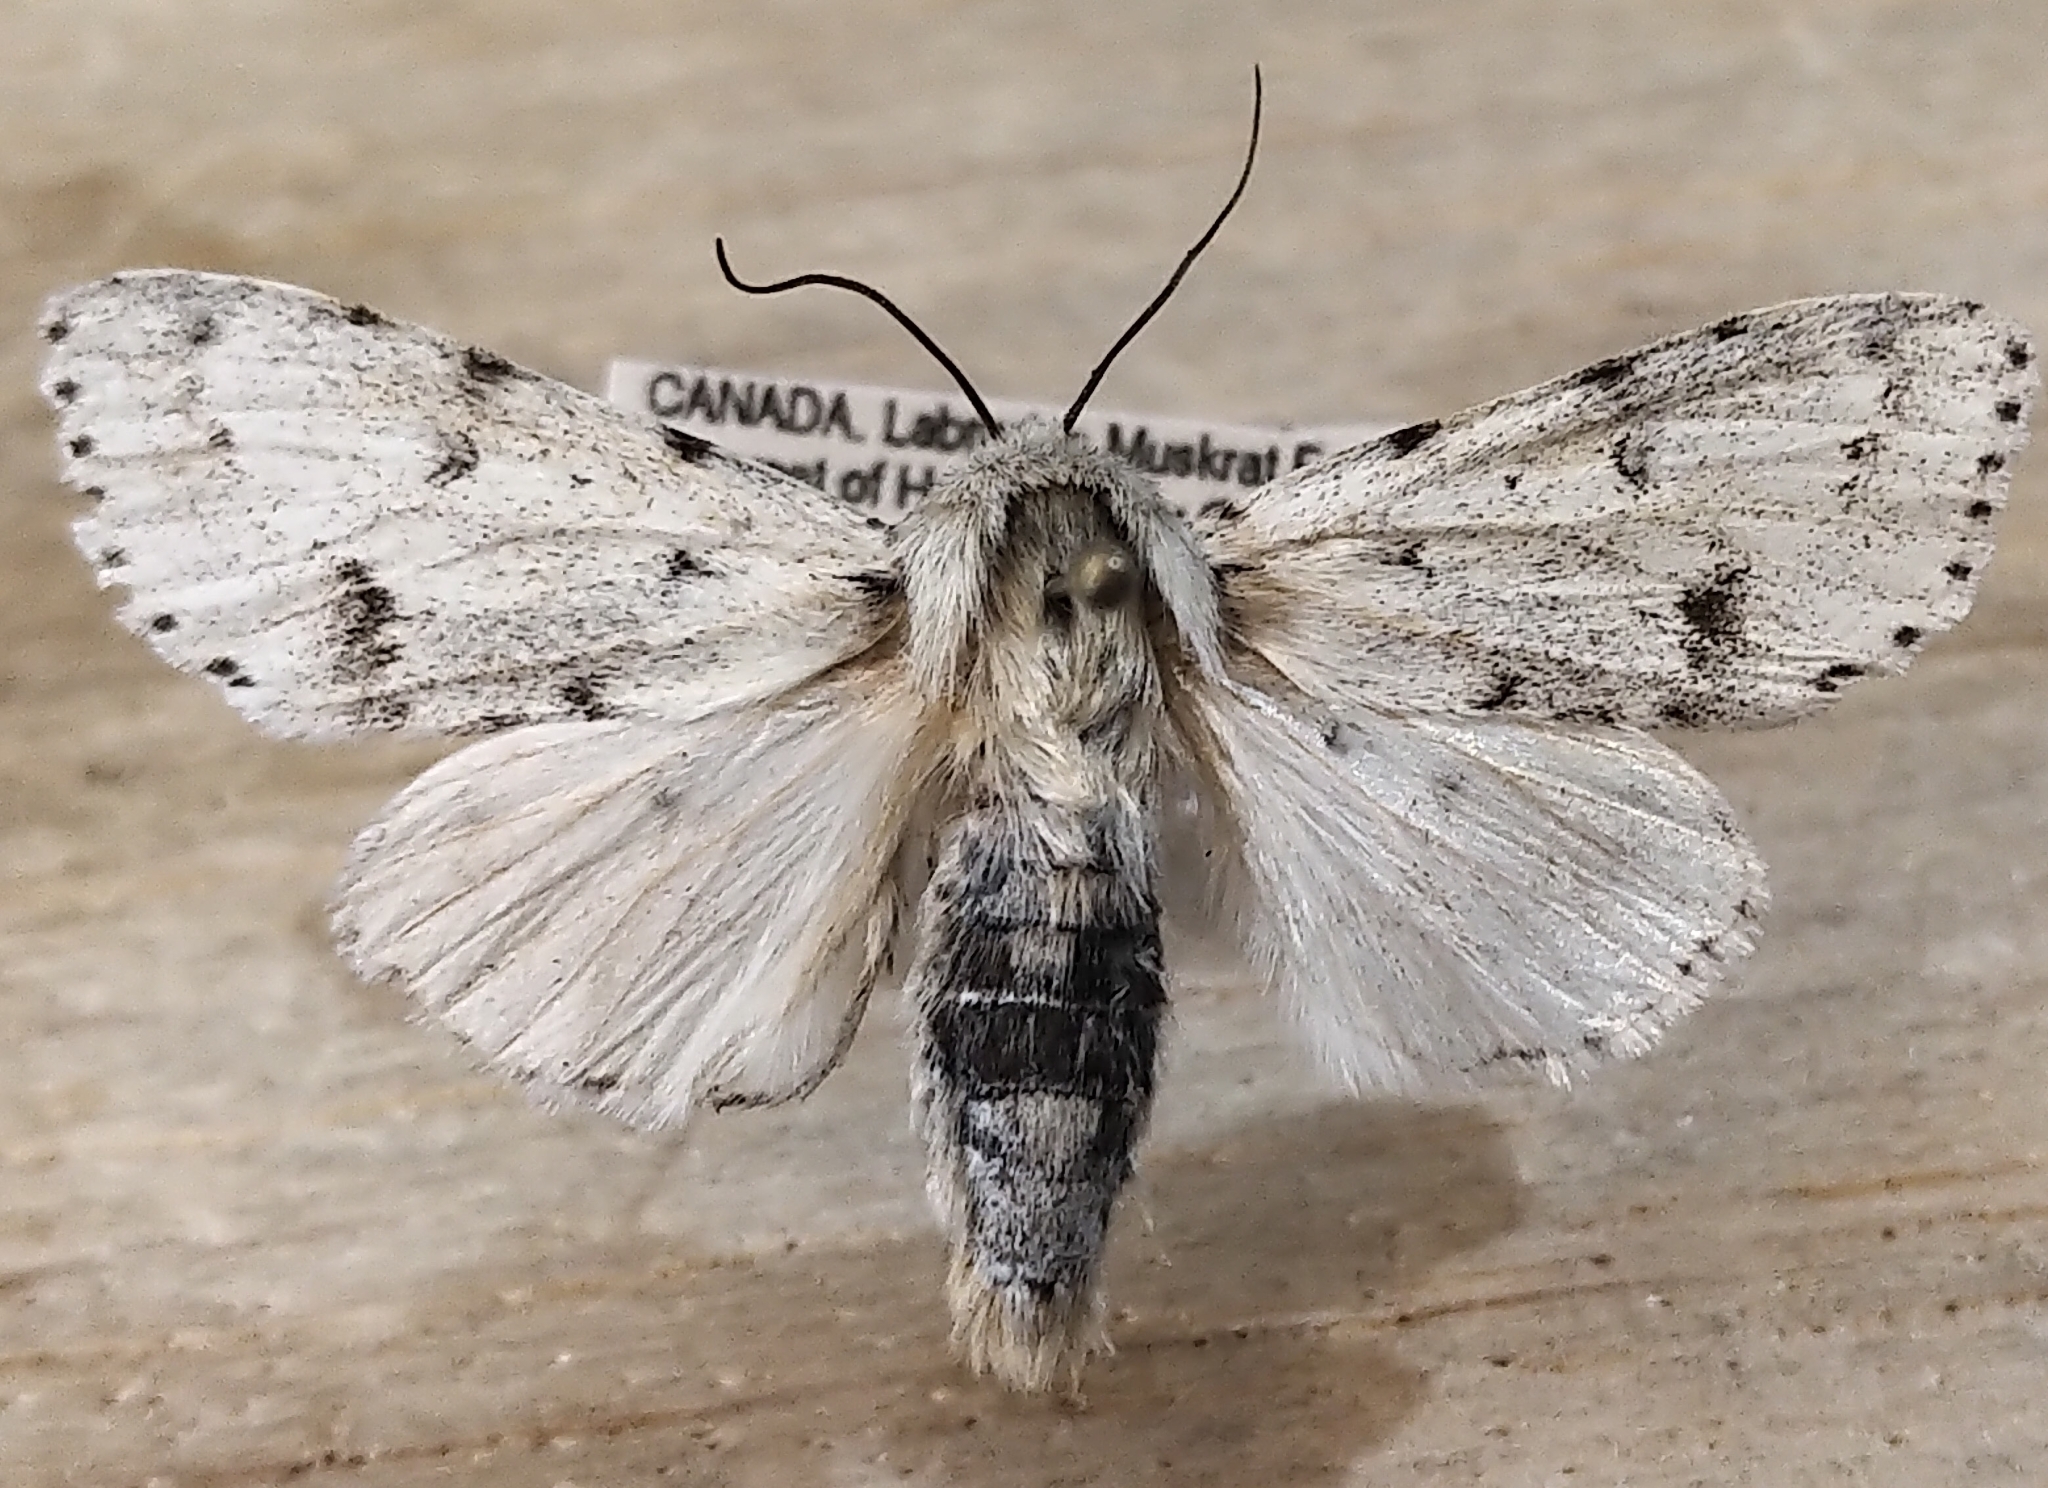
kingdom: Animalia
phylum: Arthropoda
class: Insecta
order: Lepidoptera
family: Noctuidae
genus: Acronicta
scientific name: Acronicta vulpina
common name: Miller dagger
